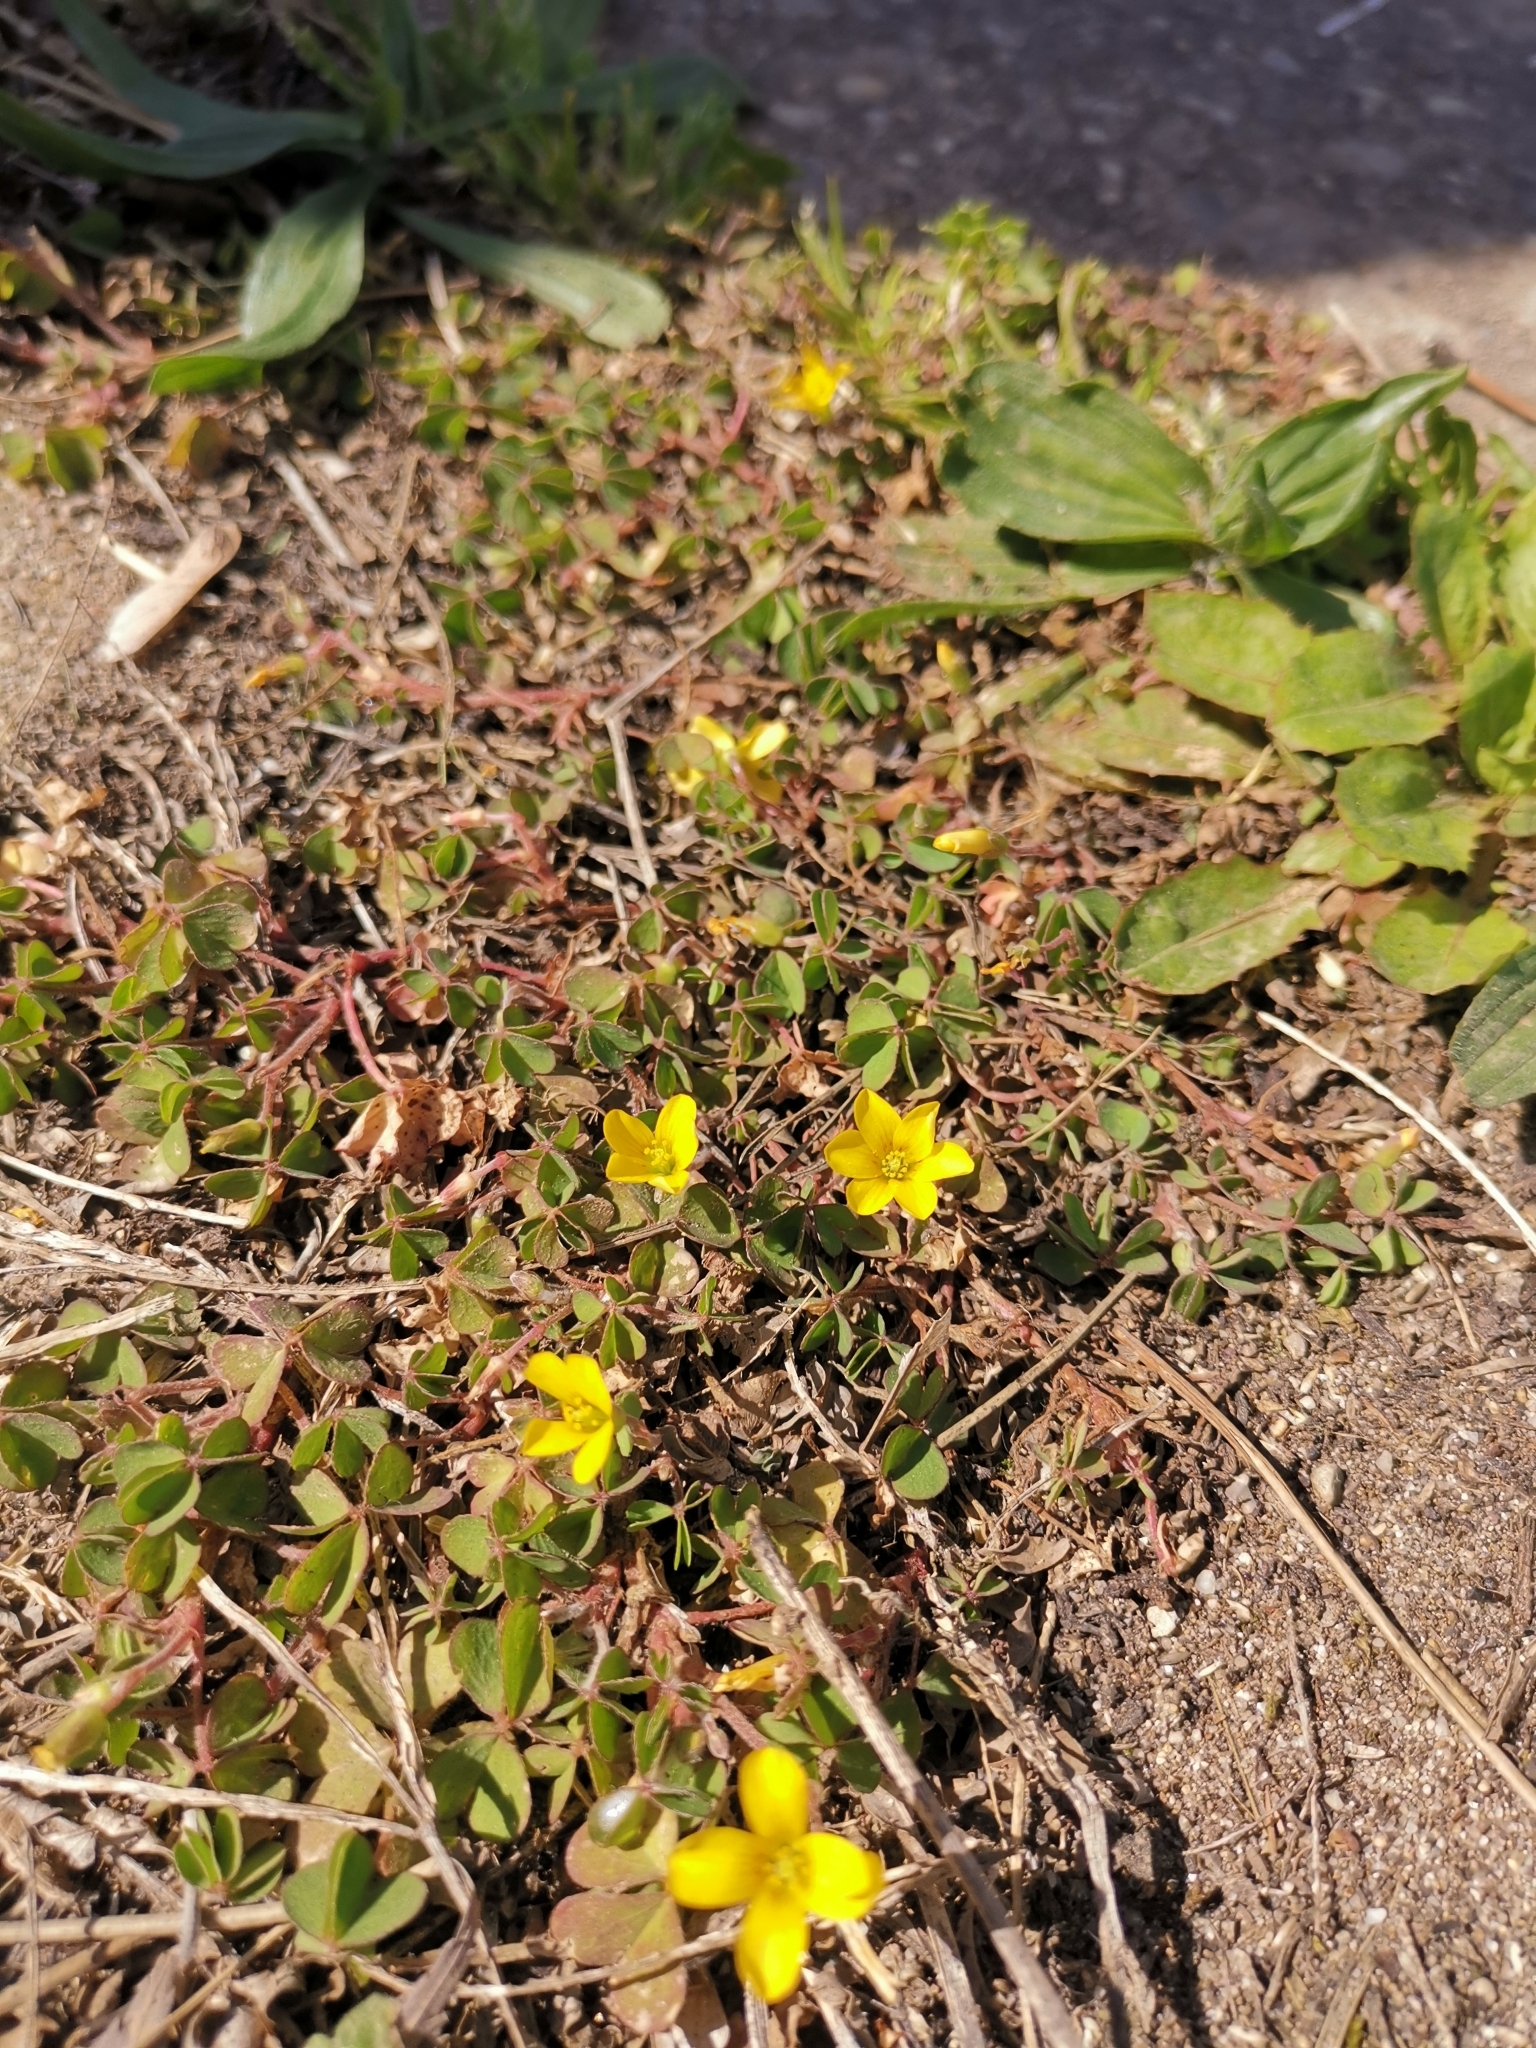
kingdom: Plantae
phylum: Tracheophyta
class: Magnoliopsida
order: Oxalidales
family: Oxalidaceae
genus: Oxalis
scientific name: Oxalis corniculata
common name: Procumbent yellow-sorrel
